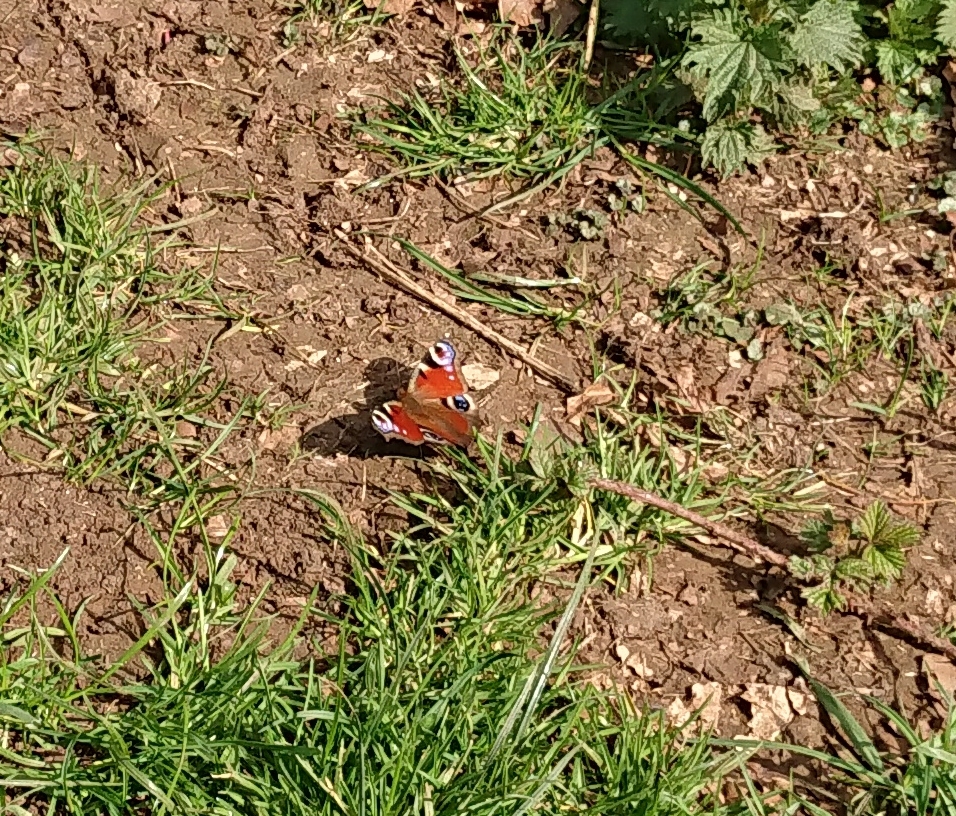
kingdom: Animalia
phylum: Arthropoda
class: Insecta
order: Lepidoptera
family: Nymphalidae
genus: Aglais
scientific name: Aglais io
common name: Peacock
